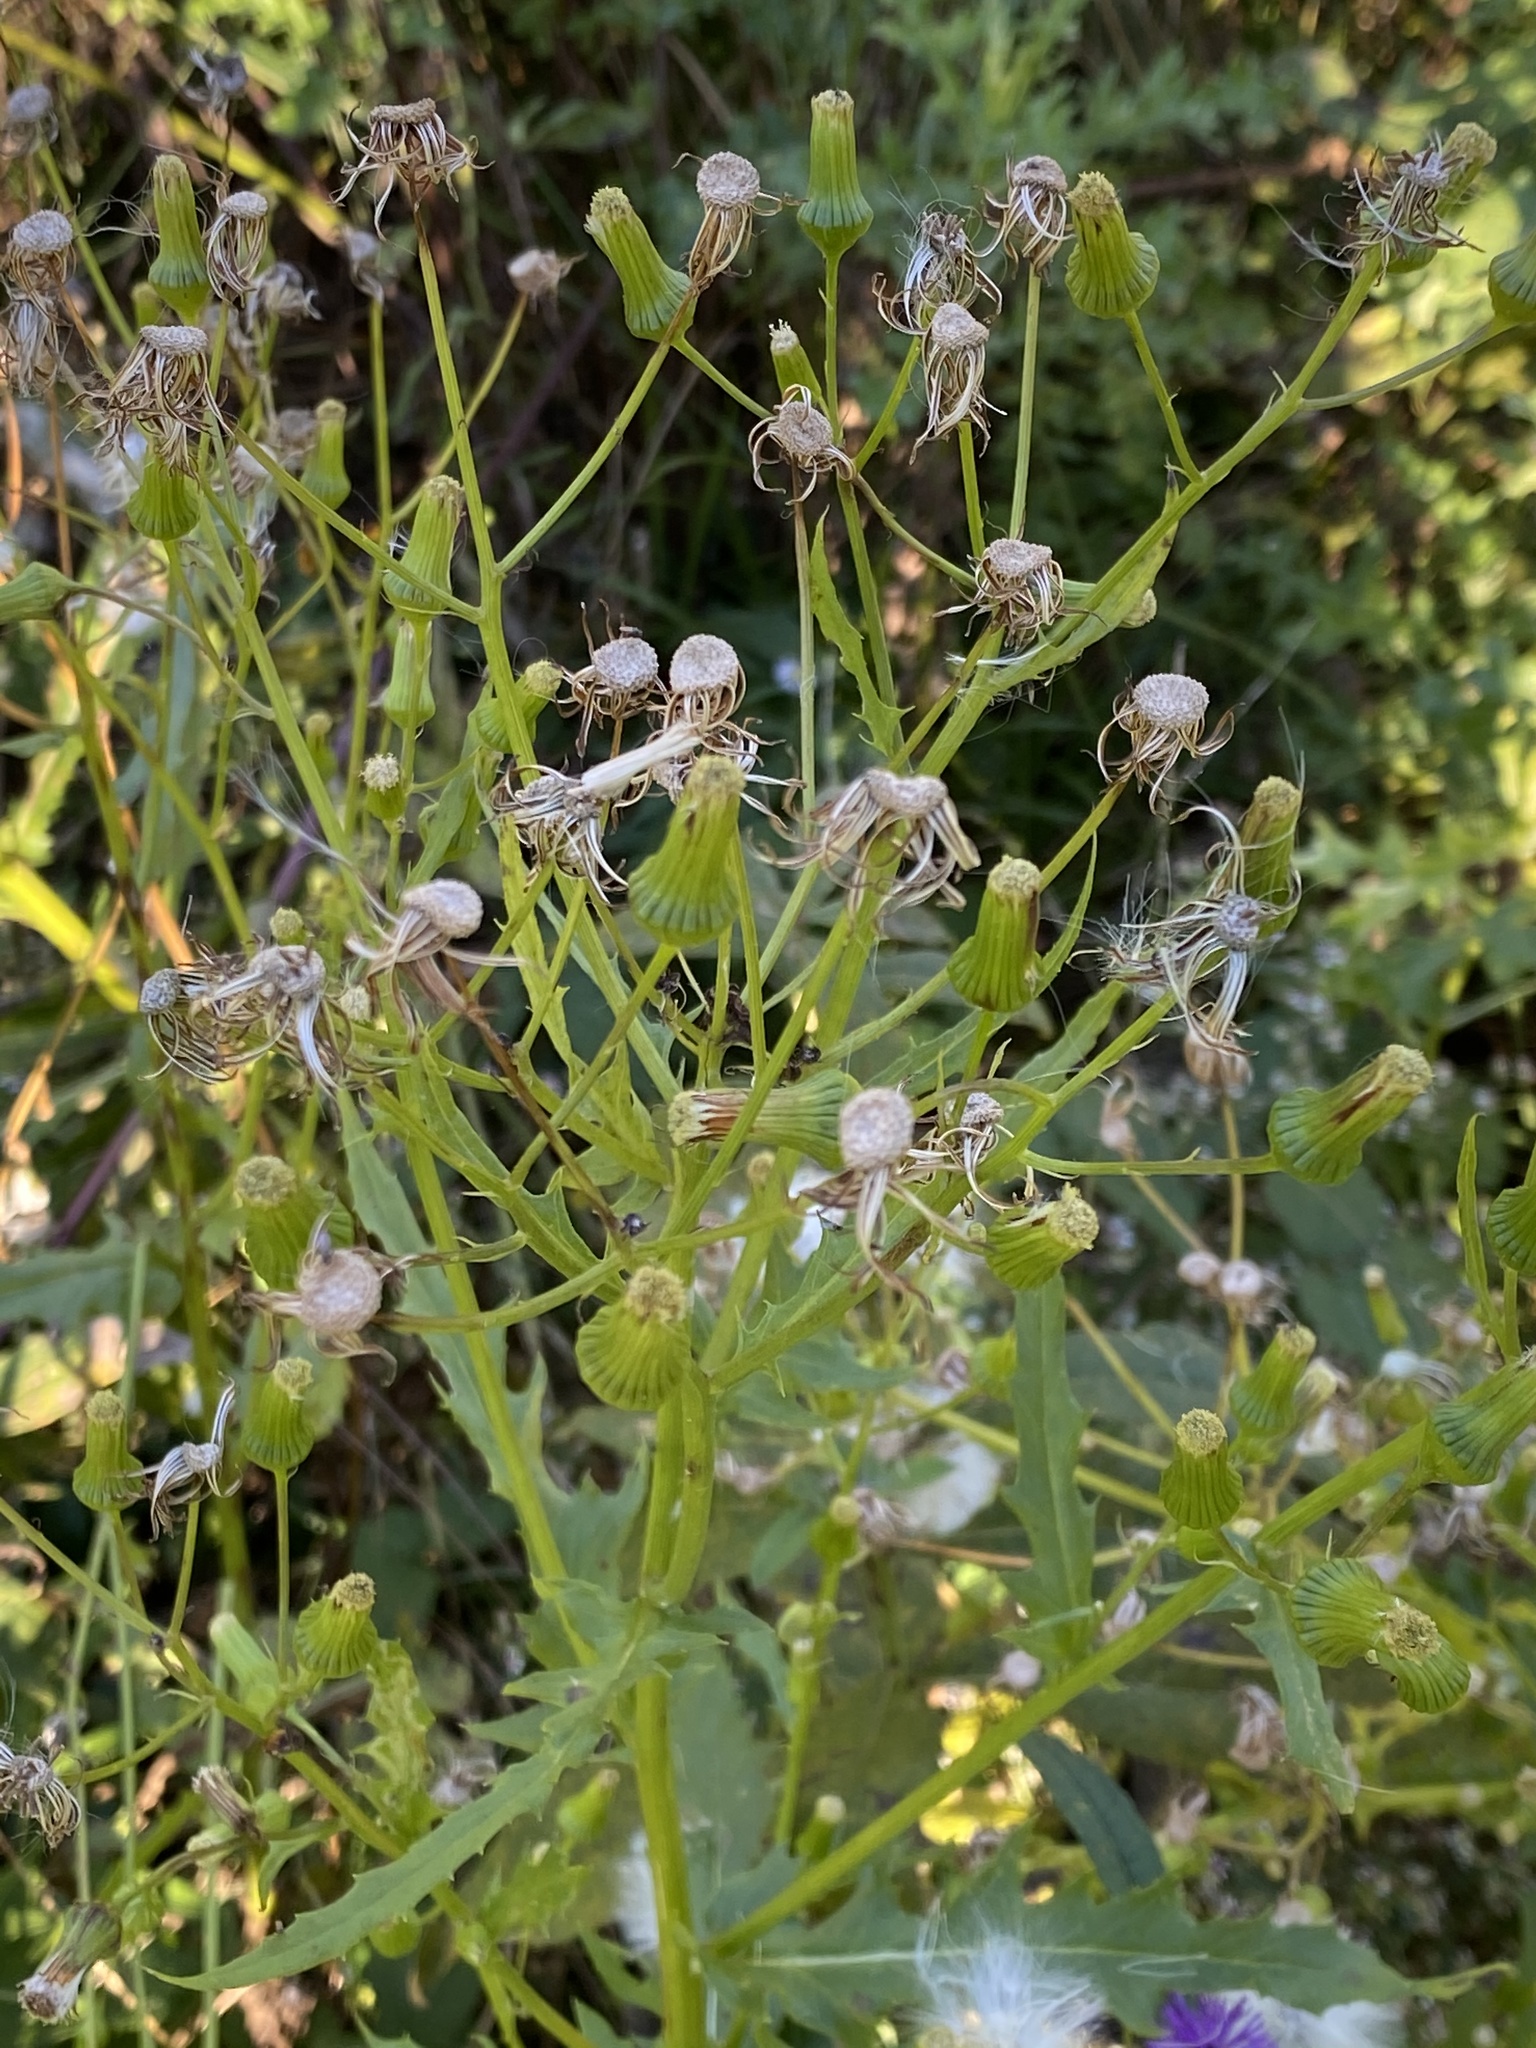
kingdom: Plantae
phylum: Tracheophyta
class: Magnoliopsida
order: Asterales
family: Asteraceae
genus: Erechtites
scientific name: Erechtites hieraciifolius
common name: American burnweed
